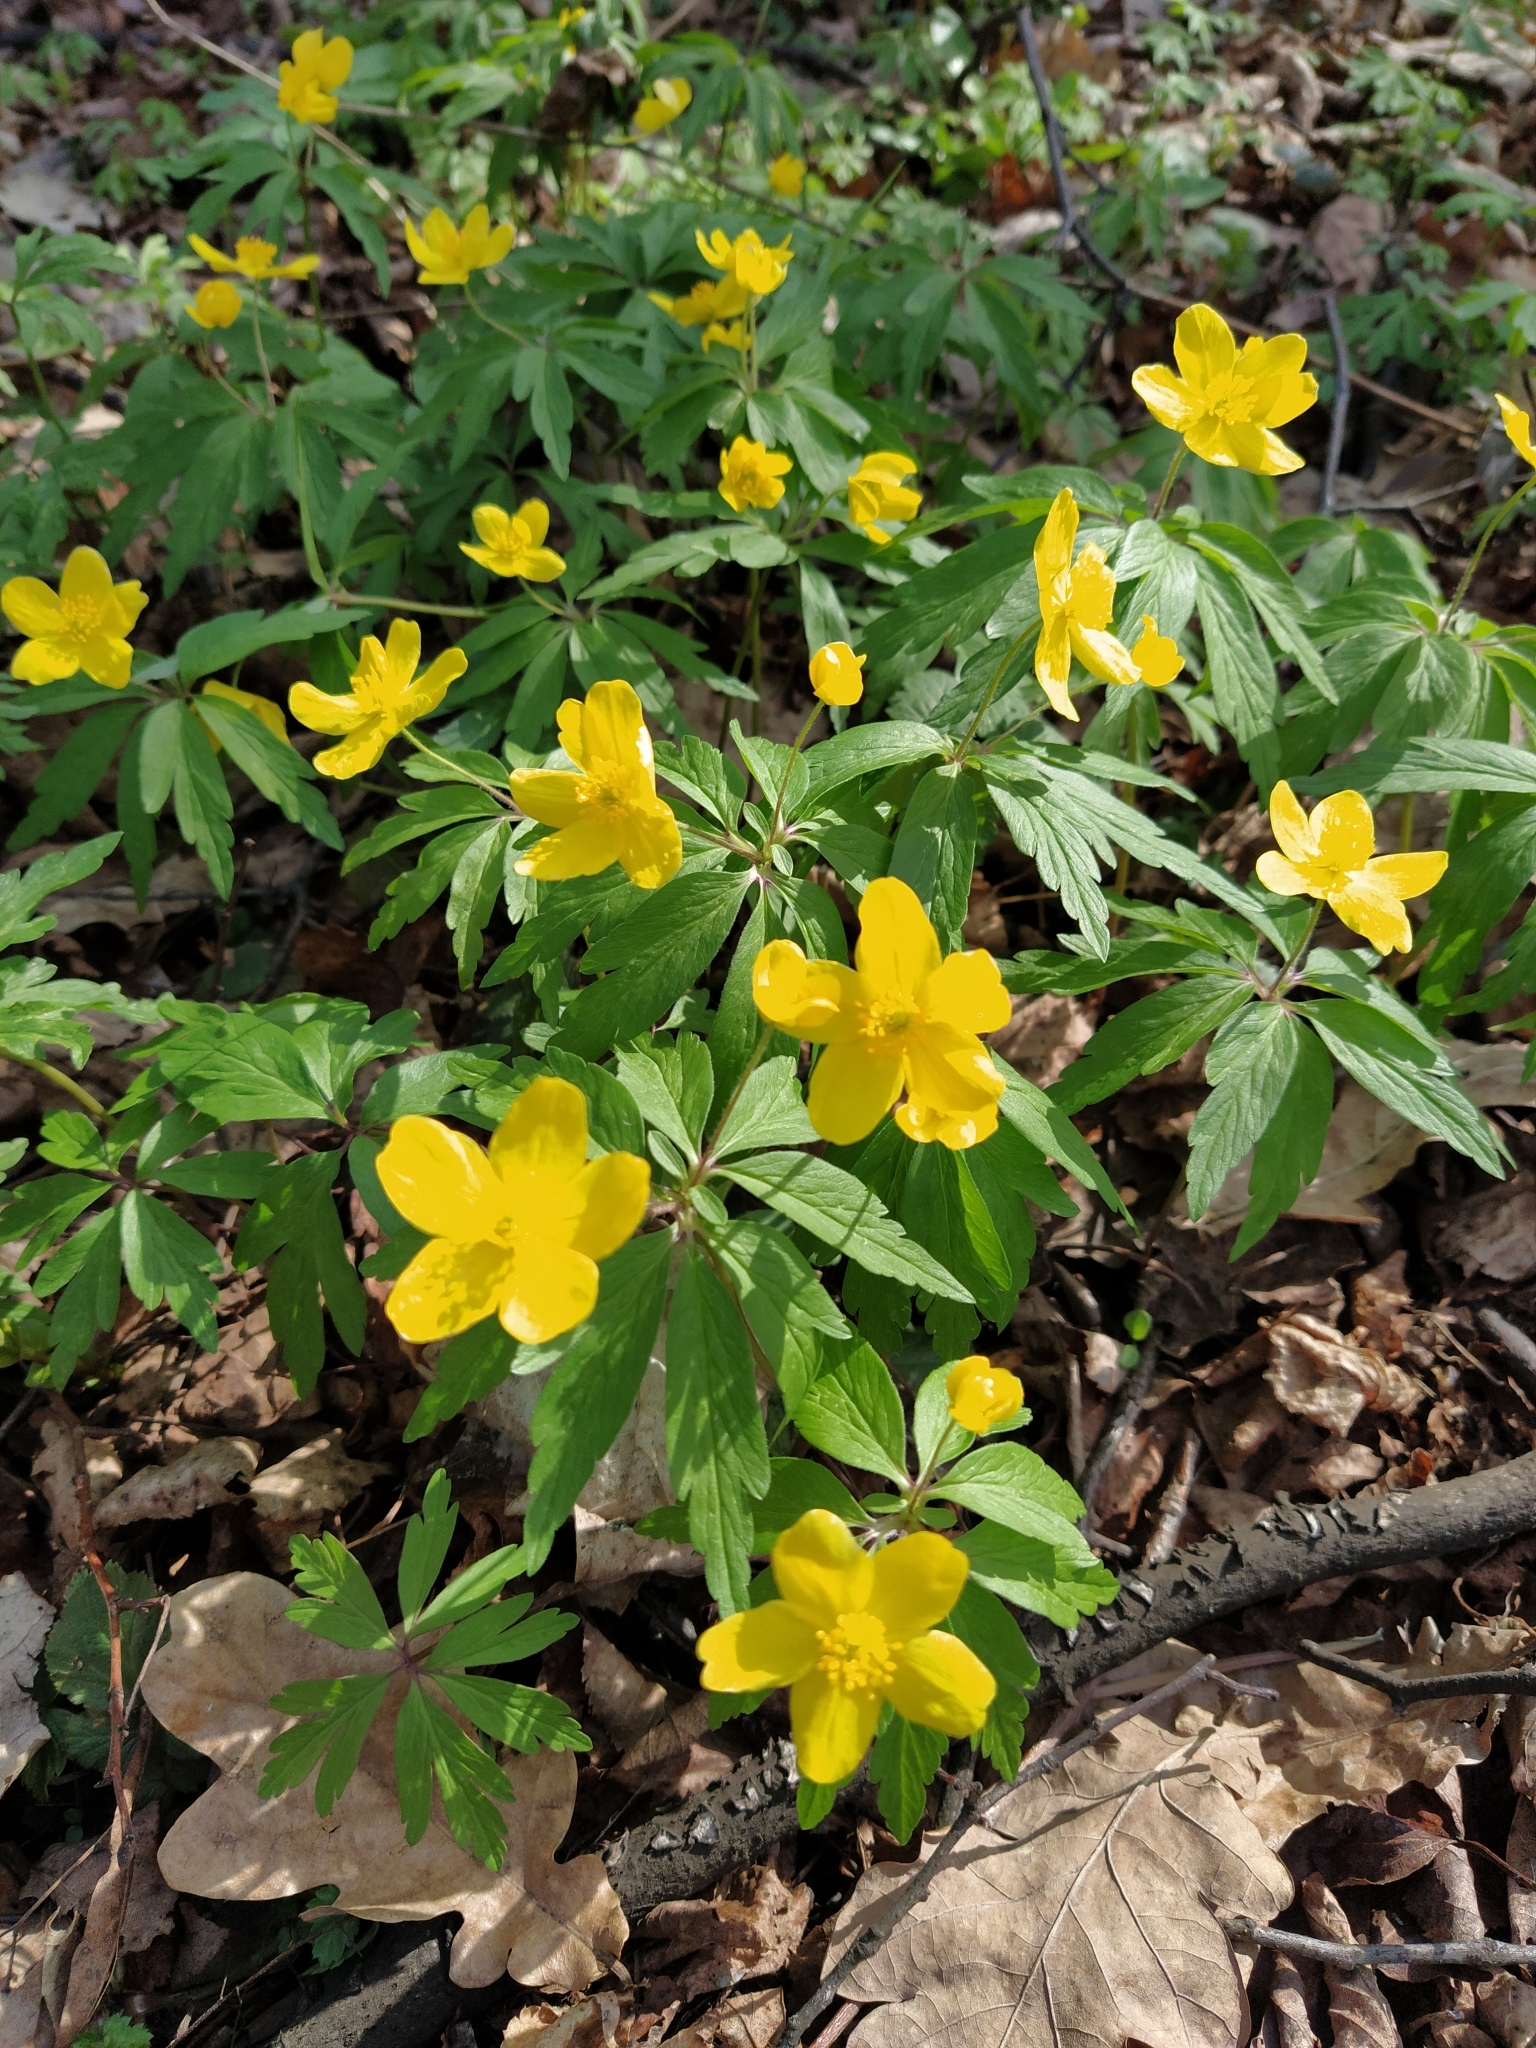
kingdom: Plantae
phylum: Tracheophyta
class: Magnoliopsida
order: Ranunculales
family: Ranunculaceae
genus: Anemone
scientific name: Anemone ranunculoides
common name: Yellow anemone
